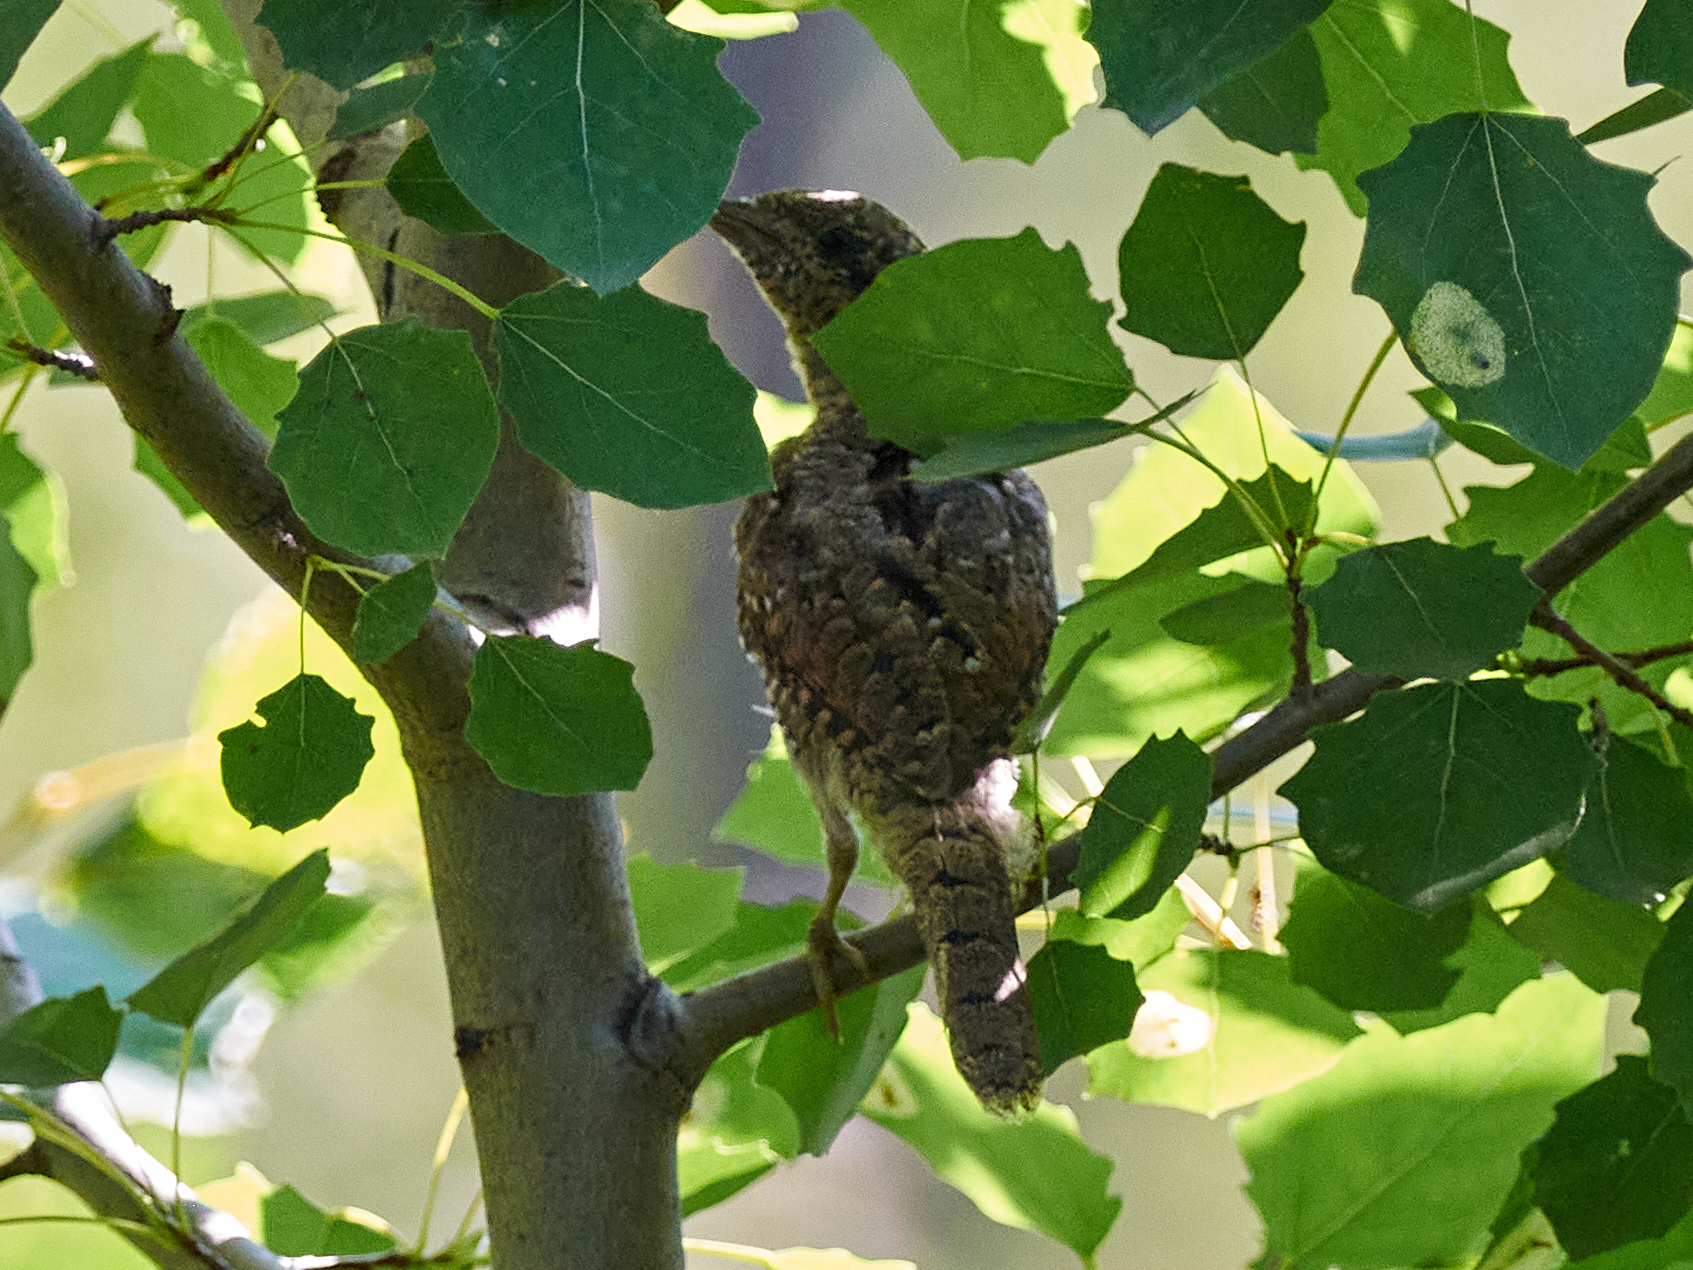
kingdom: Animalia
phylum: Chordata
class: Aves
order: Piciformes
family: Picidae
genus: Jynx
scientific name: Jynx torquilla
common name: Eurasian wryneck
